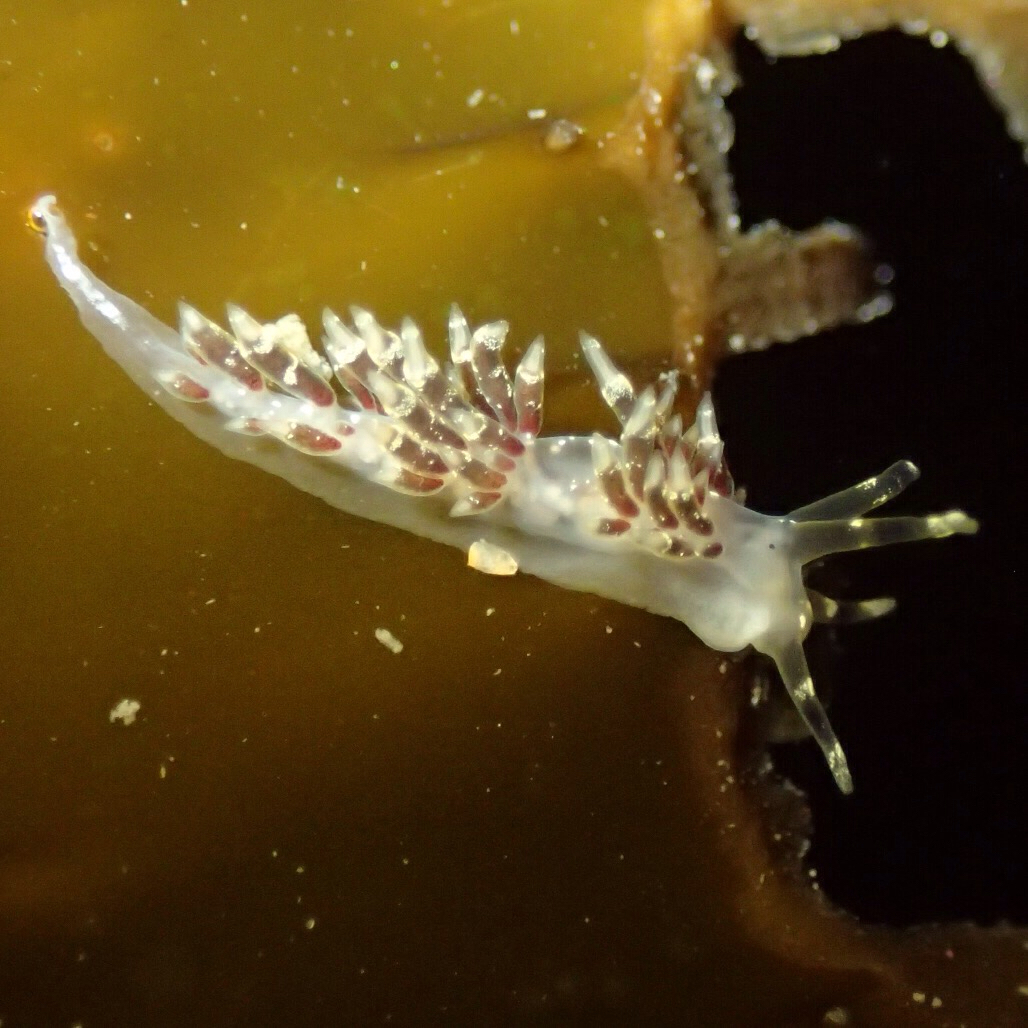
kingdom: Animalia
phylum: Mollusca
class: Gastropoda
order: Nudibranchia
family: Abronicidae
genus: Abronica
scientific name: Abronica abronia
